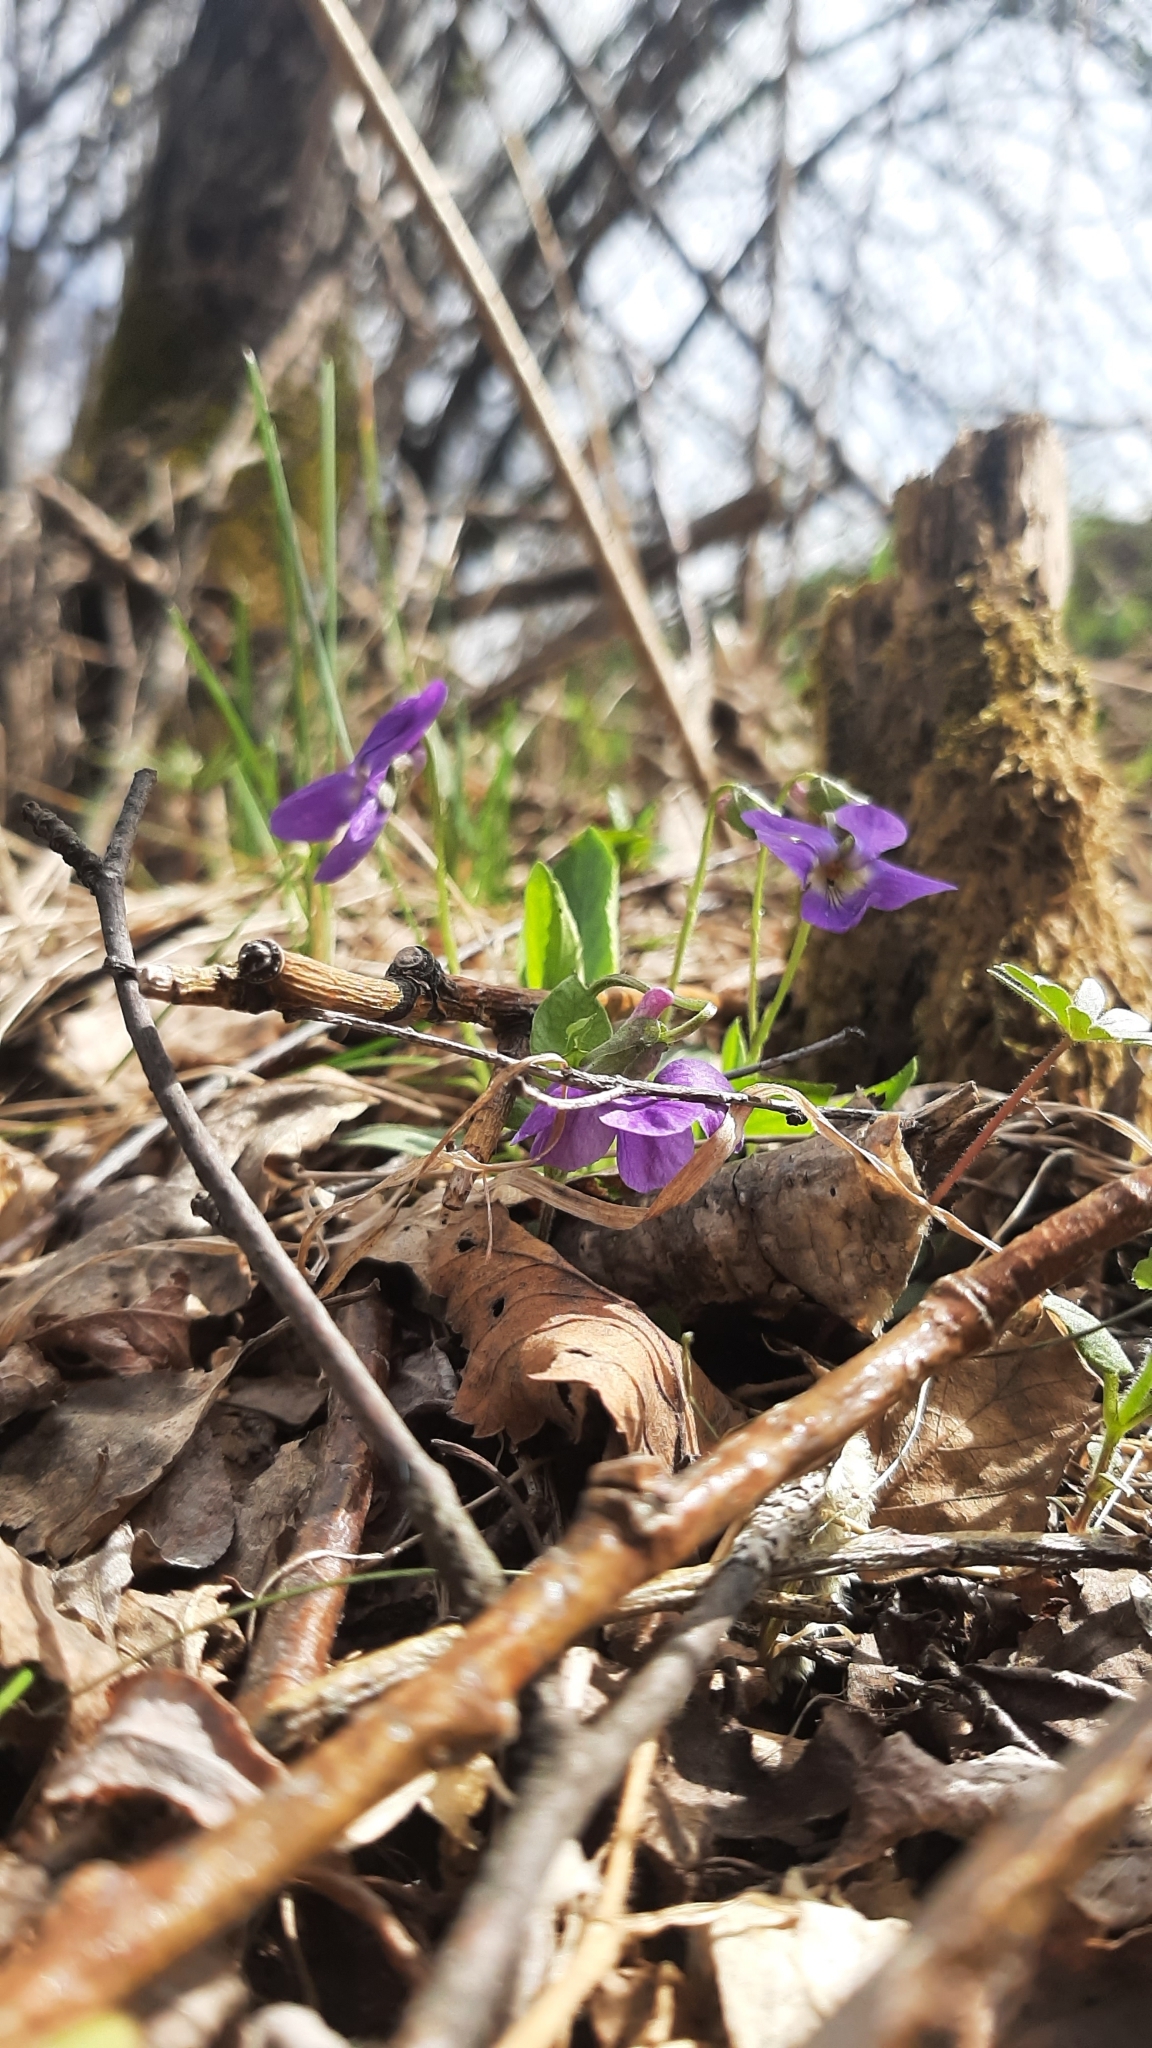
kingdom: Plantae
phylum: Tracheophyta
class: Magnoliopsida
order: Malpighiales
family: Violaceae
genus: Viola
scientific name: Viola hirta
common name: Hairy violet
